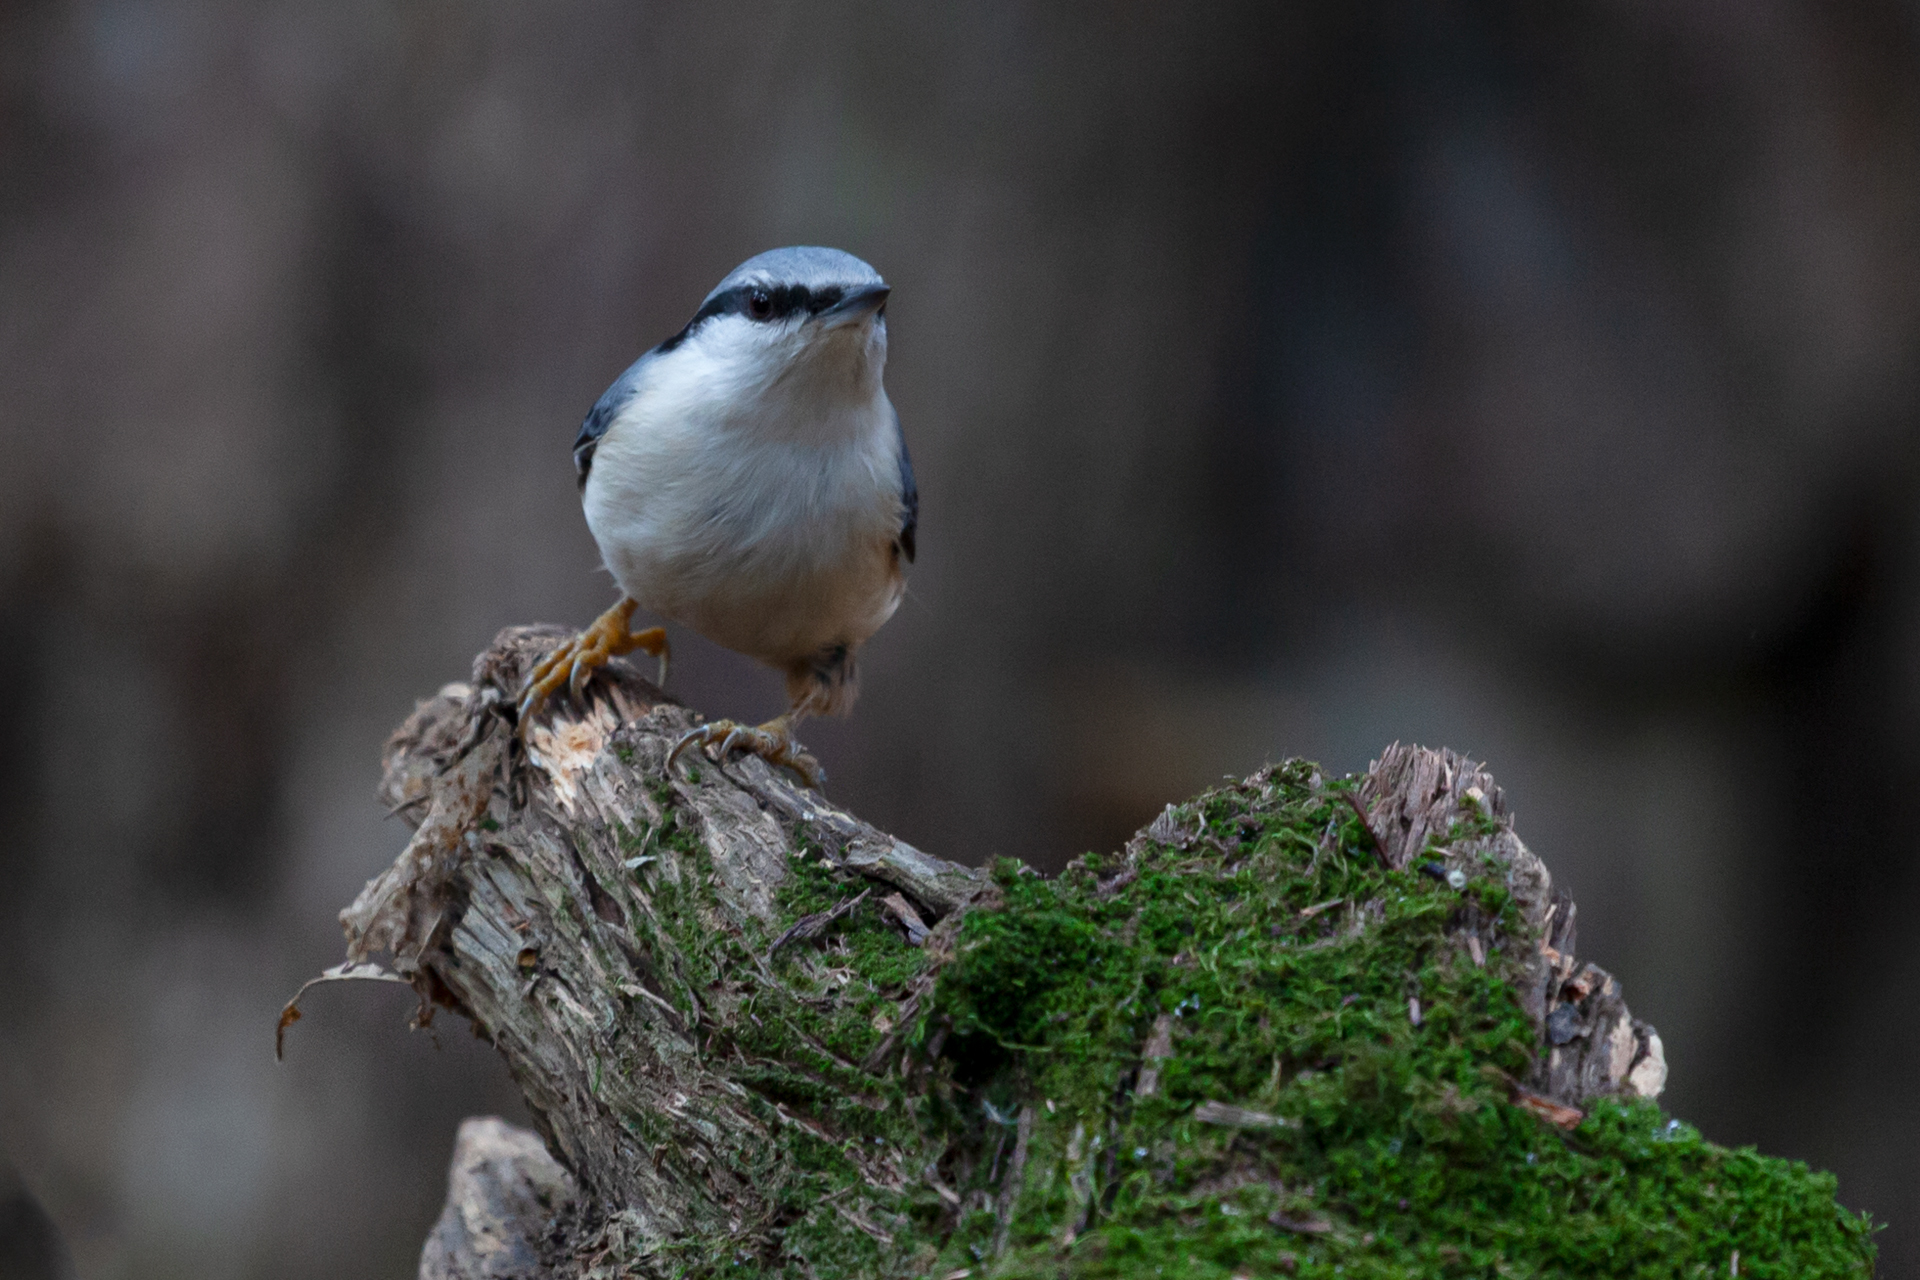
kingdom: Animalia
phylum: Chordata
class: Aves
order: Passeriformes
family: Sittidae
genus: Sitta
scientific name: Sitta europaea
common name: Eurasian nuthatch
